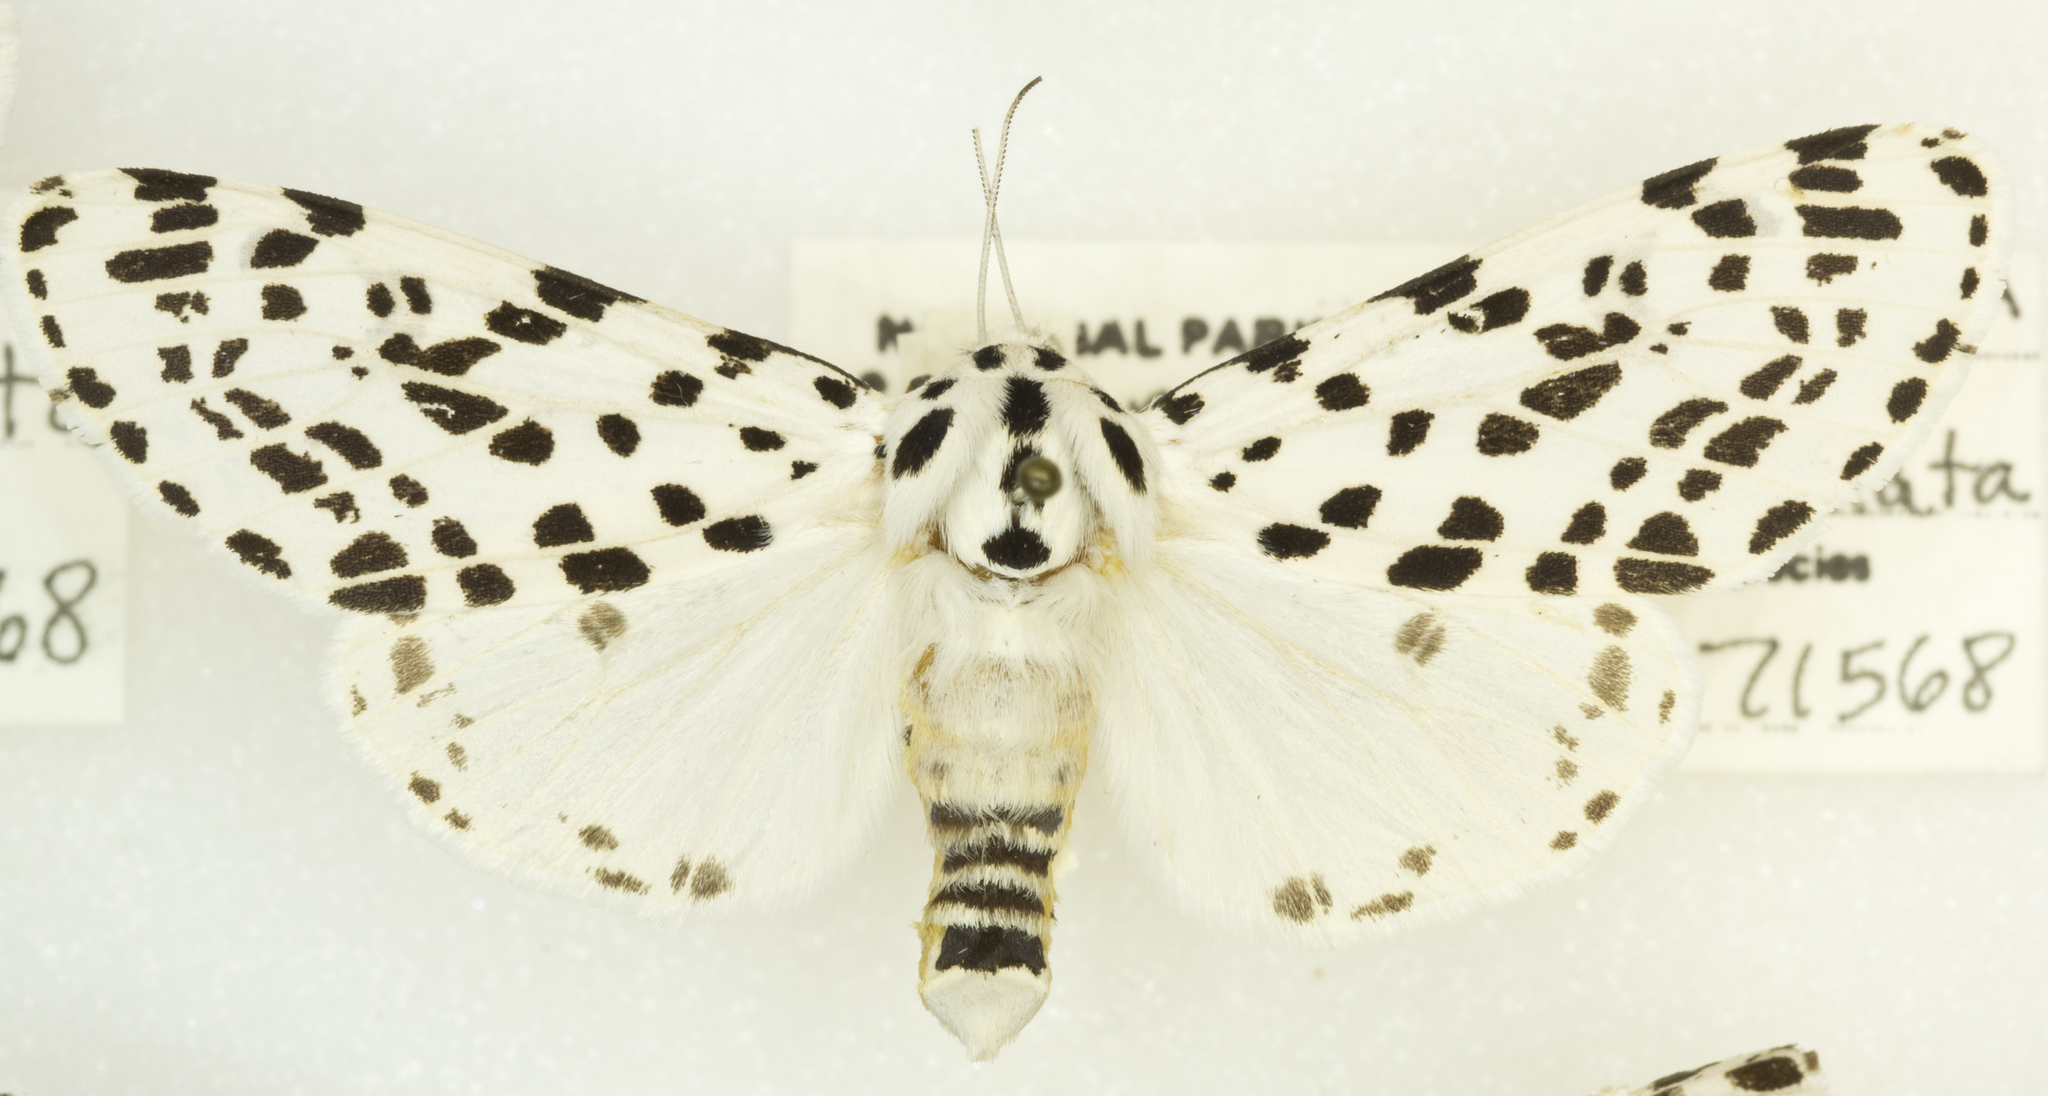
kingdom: Animalia
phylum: Arthropoda
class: Insecta
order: Lepidoptera
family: Erebidae
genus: Hypercompe
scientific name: Hypercompe permaculata
